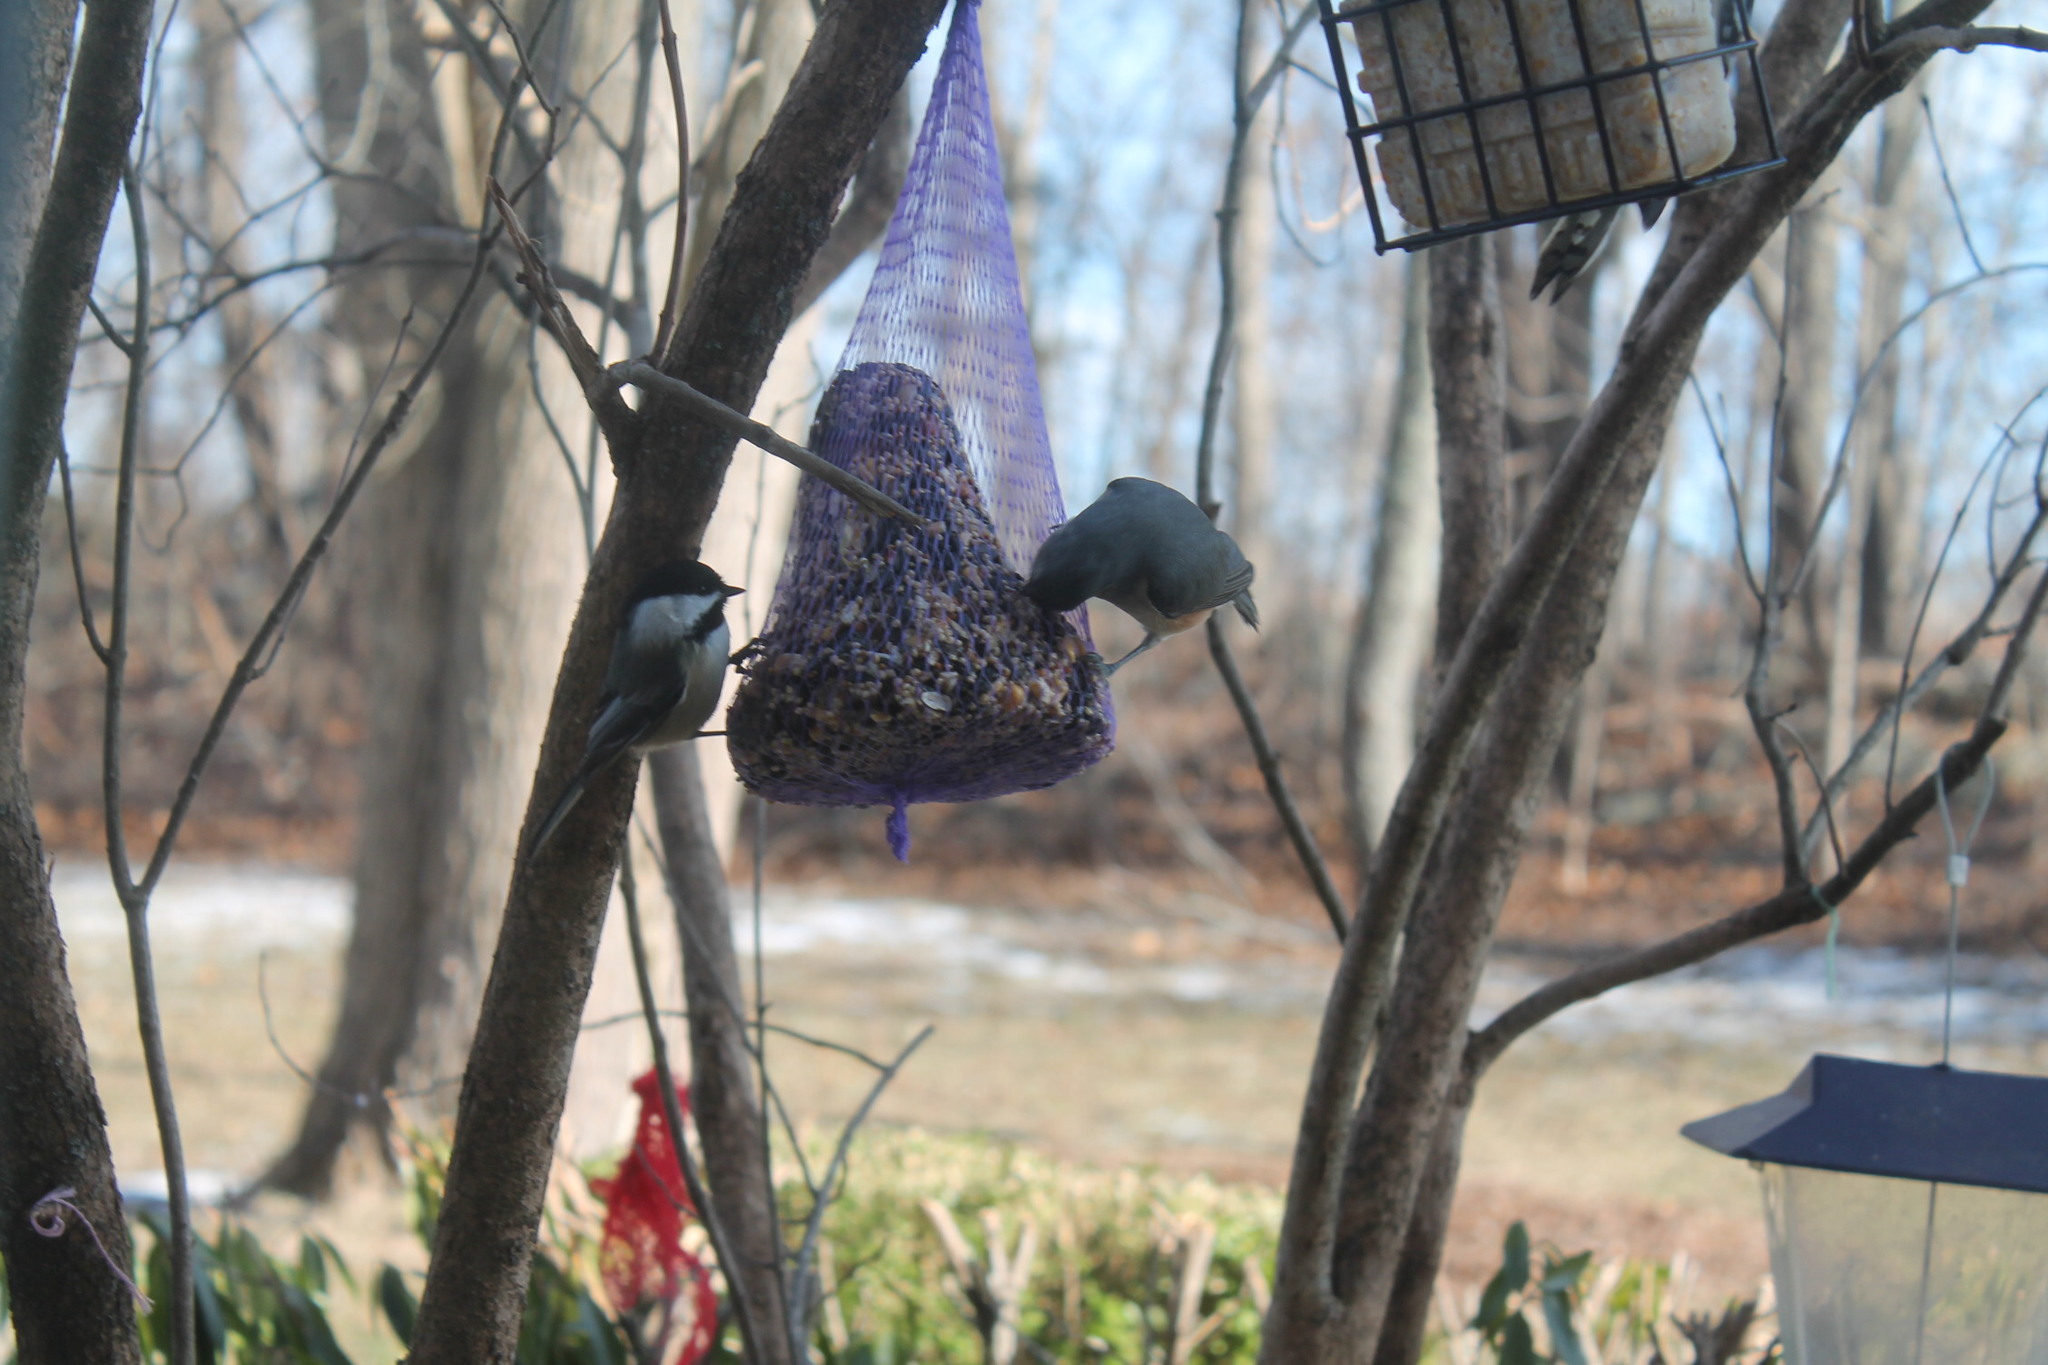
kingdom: Animalia
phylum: Chordata
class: Aves
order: Passeriformes
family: Paridae
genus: Poecile
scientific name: Poecile atricapillus
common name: Black-capped chickadee
